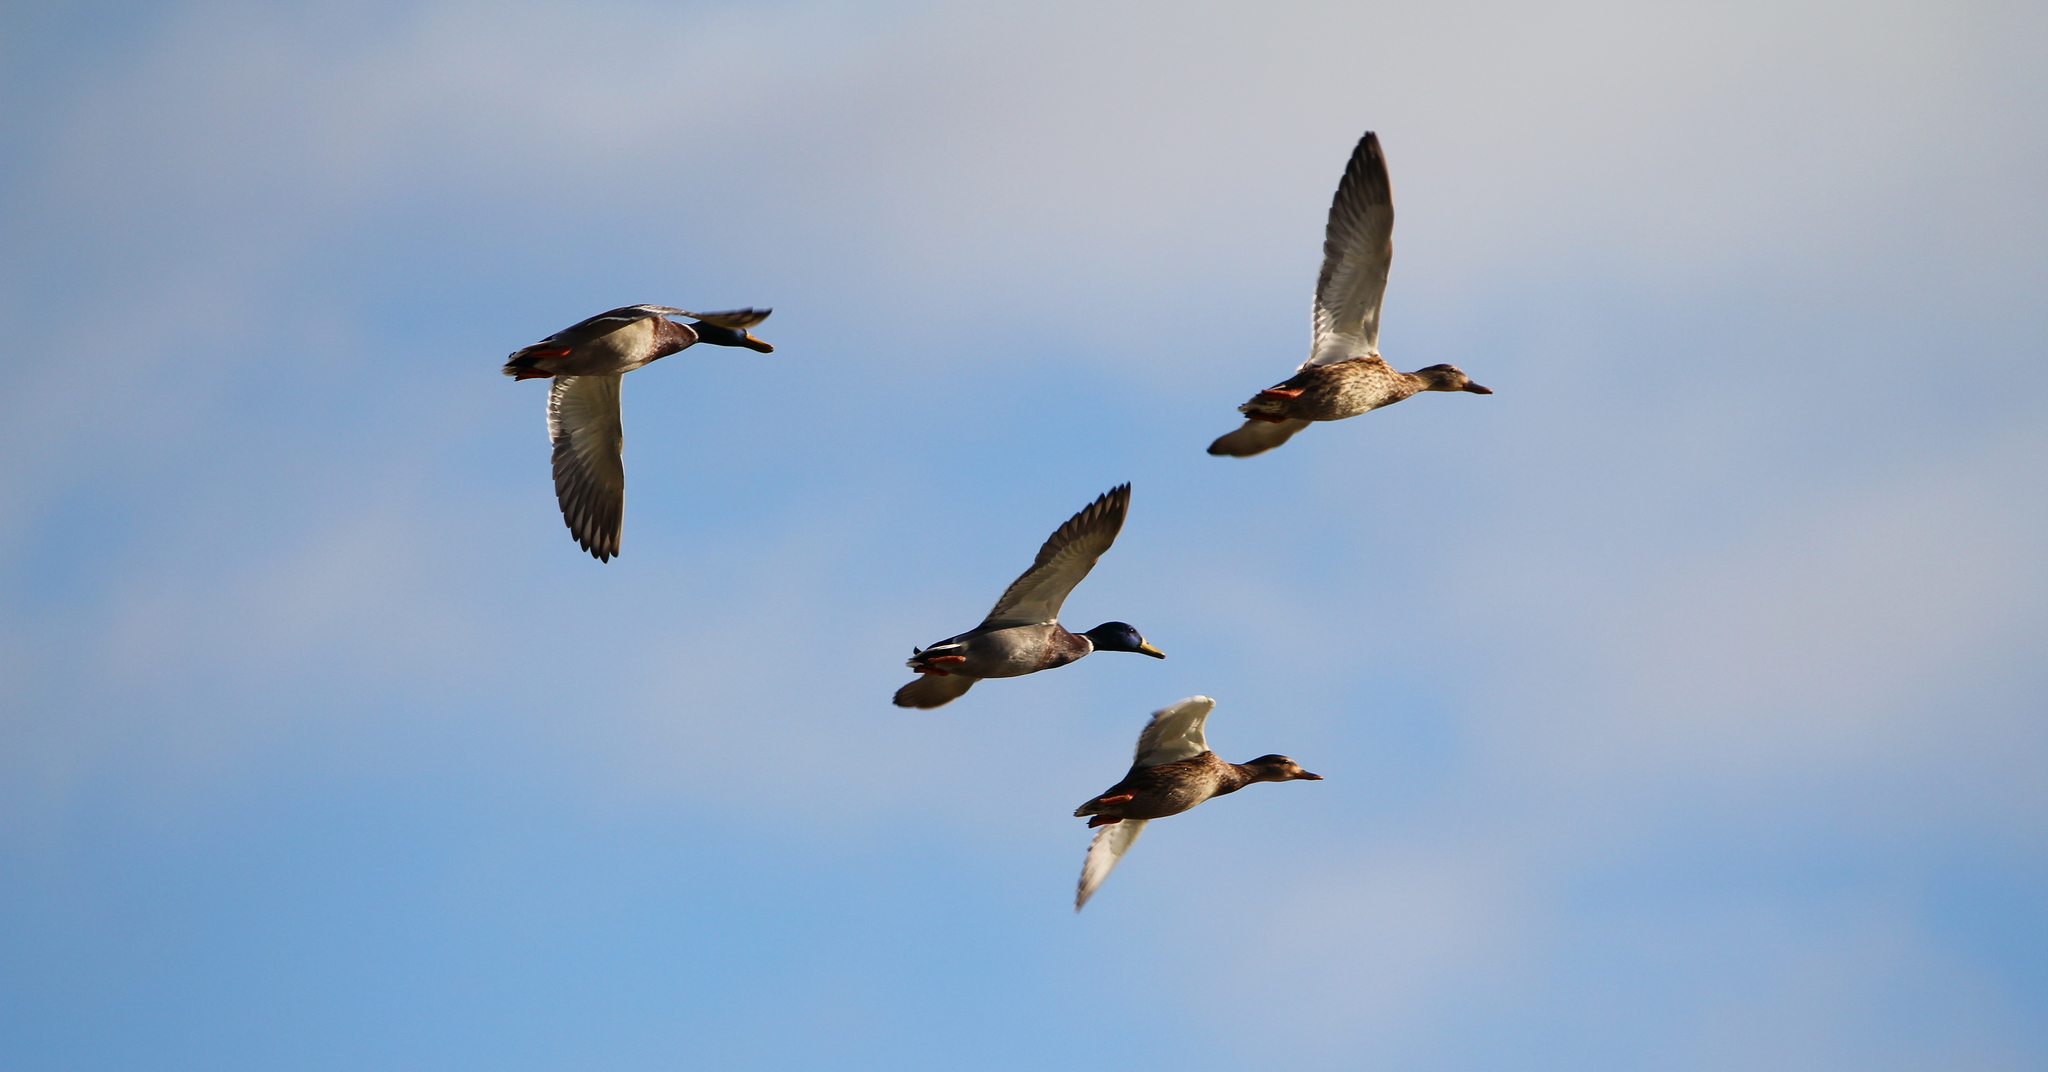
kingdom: Animalia
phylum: Chordata
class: Aves
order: Anseriformes
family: Anatidae
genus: Anas
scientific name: Anas platyrhynchos
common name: Mallard
